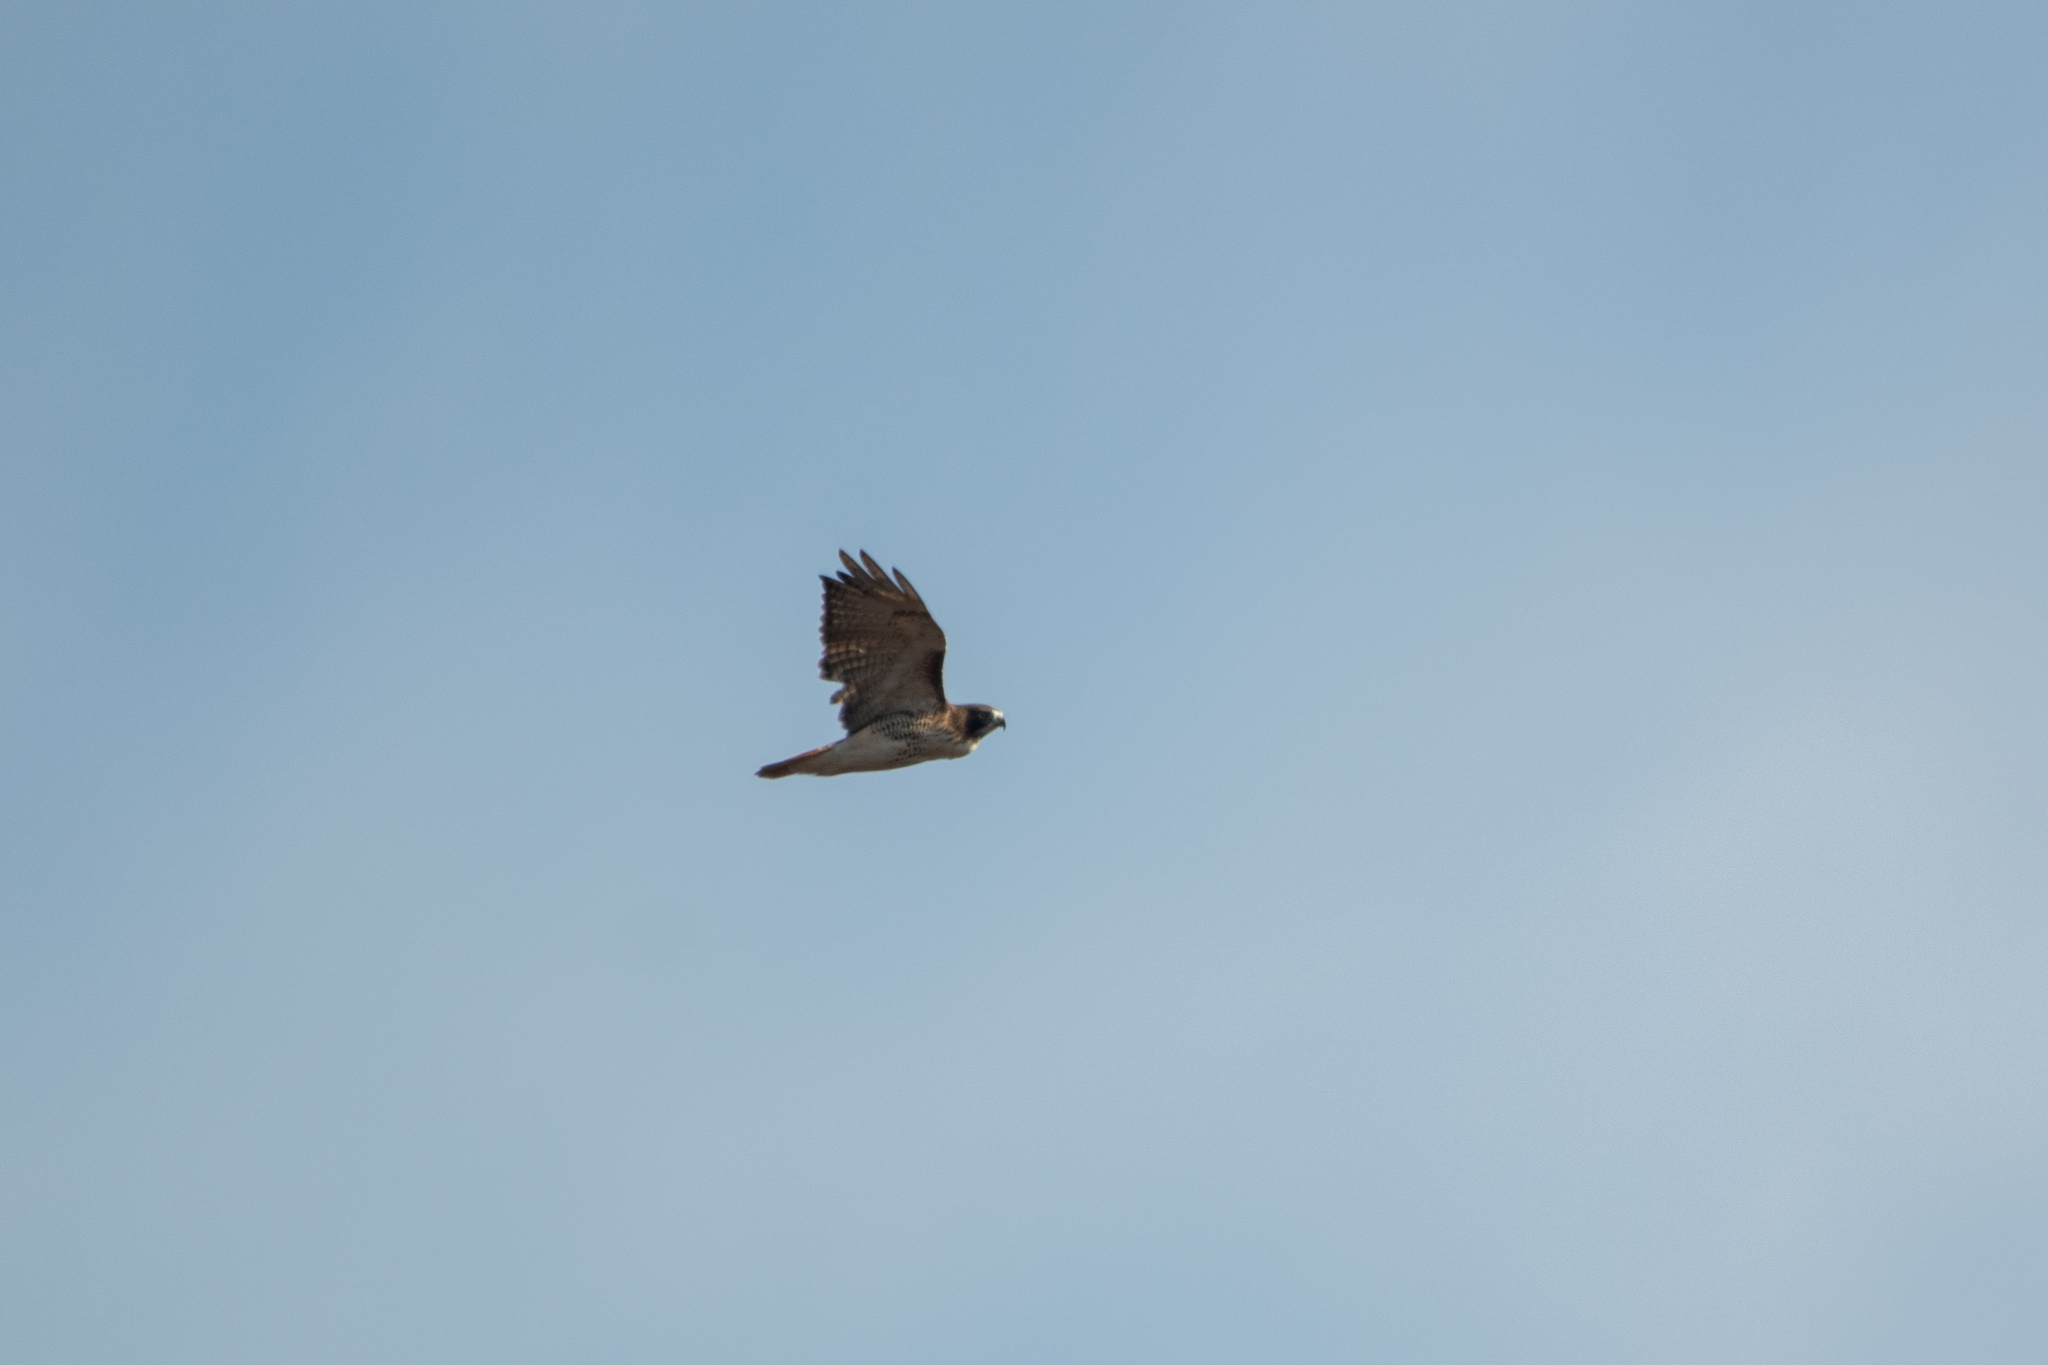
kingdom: Animalia
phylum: Chordata
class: Aves
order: Accipitriformes
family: Accipitridae
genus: Buteo
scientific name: Buteo jamaicensis
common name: Red-tailed hawk
